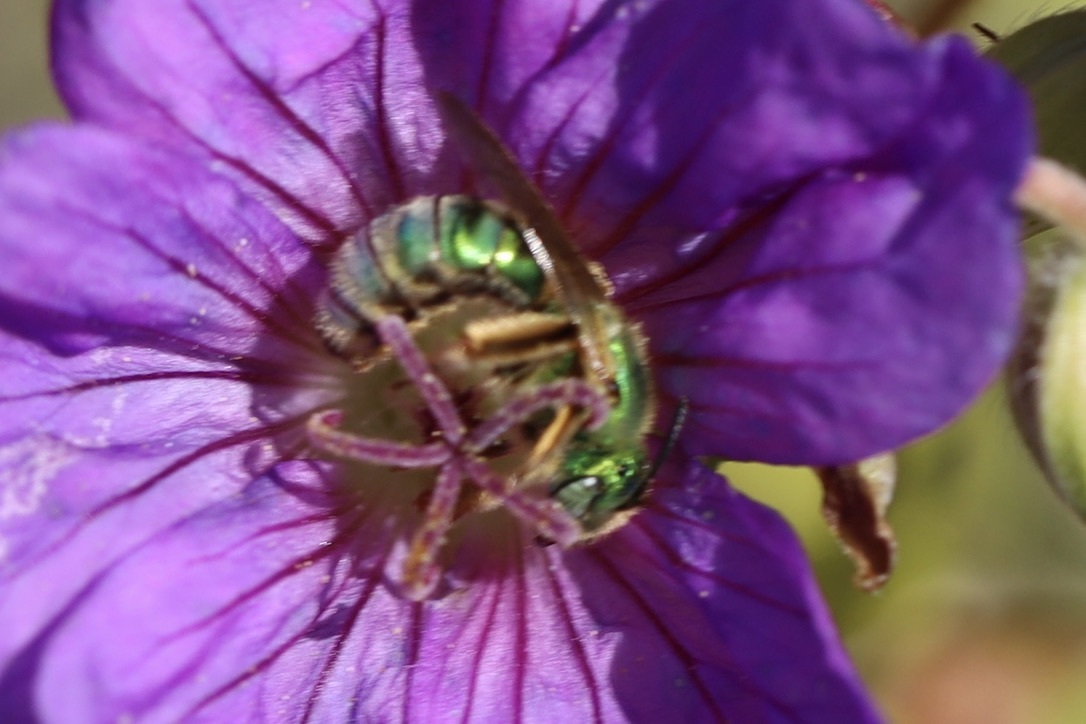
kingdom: Animalia
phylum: Arthropoda
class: Insecta
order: Hymenoptera
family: Halictidae
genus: Agapostemon
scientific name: Agapostemon texanus
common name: Texas striped sweat bee
